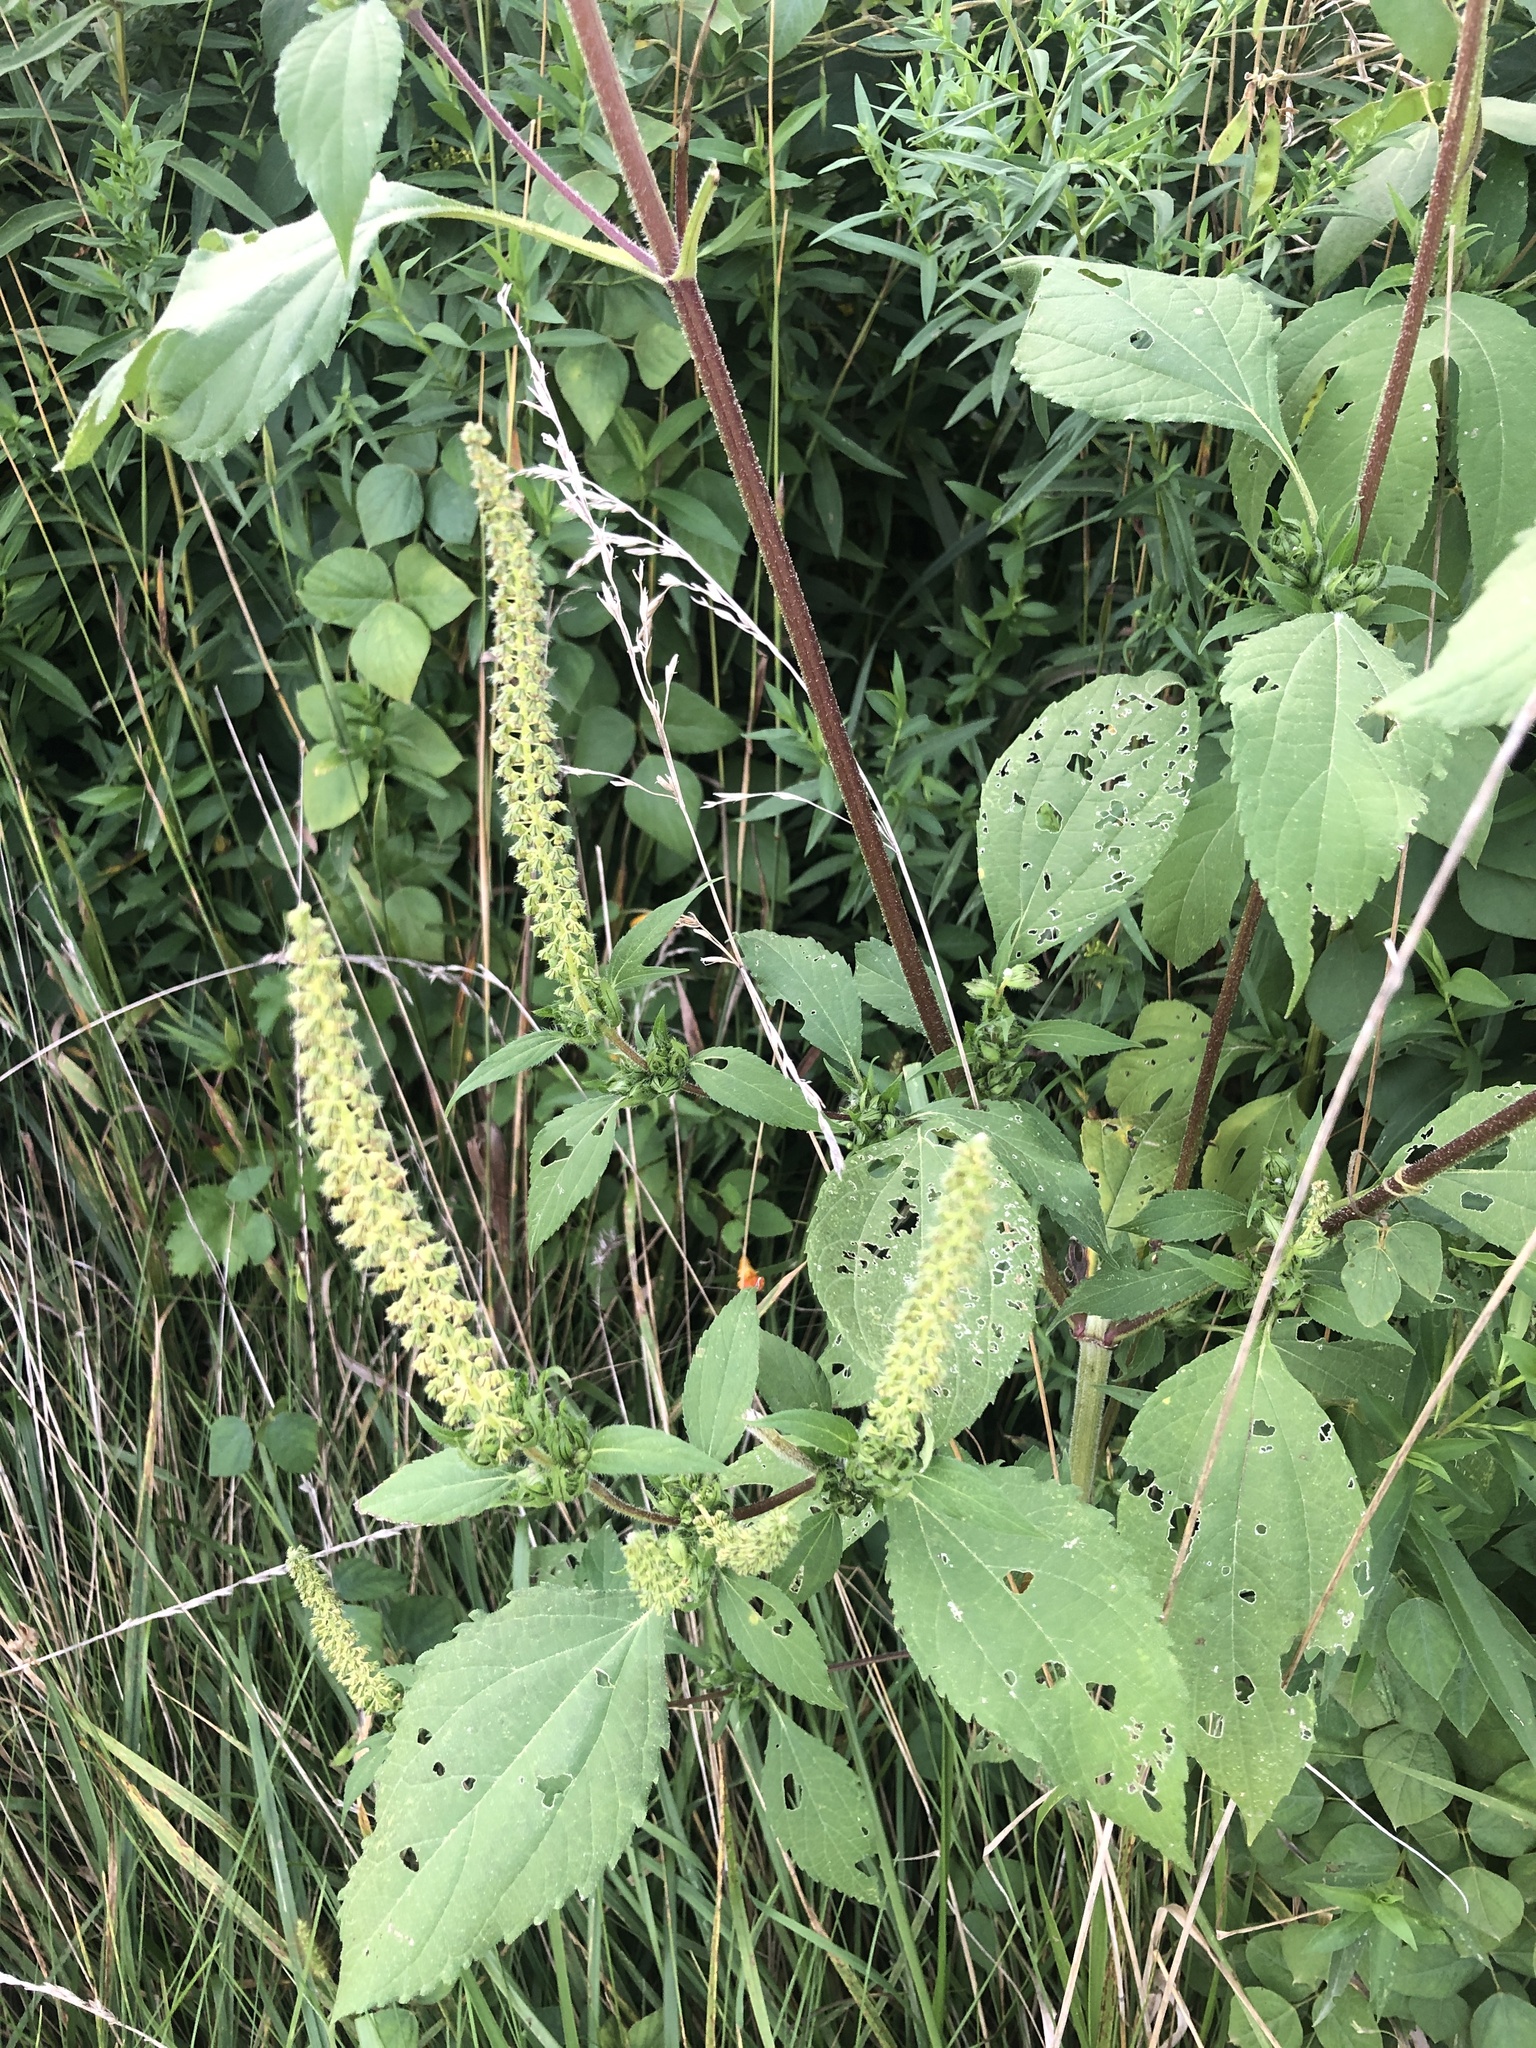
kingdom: Plantae
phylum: Tracheophyta
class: Magnoliopsida
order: Asterales
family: Asteraceae
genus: Ambrosia
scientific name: Ambrosia trifida
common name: Giant ragweed
